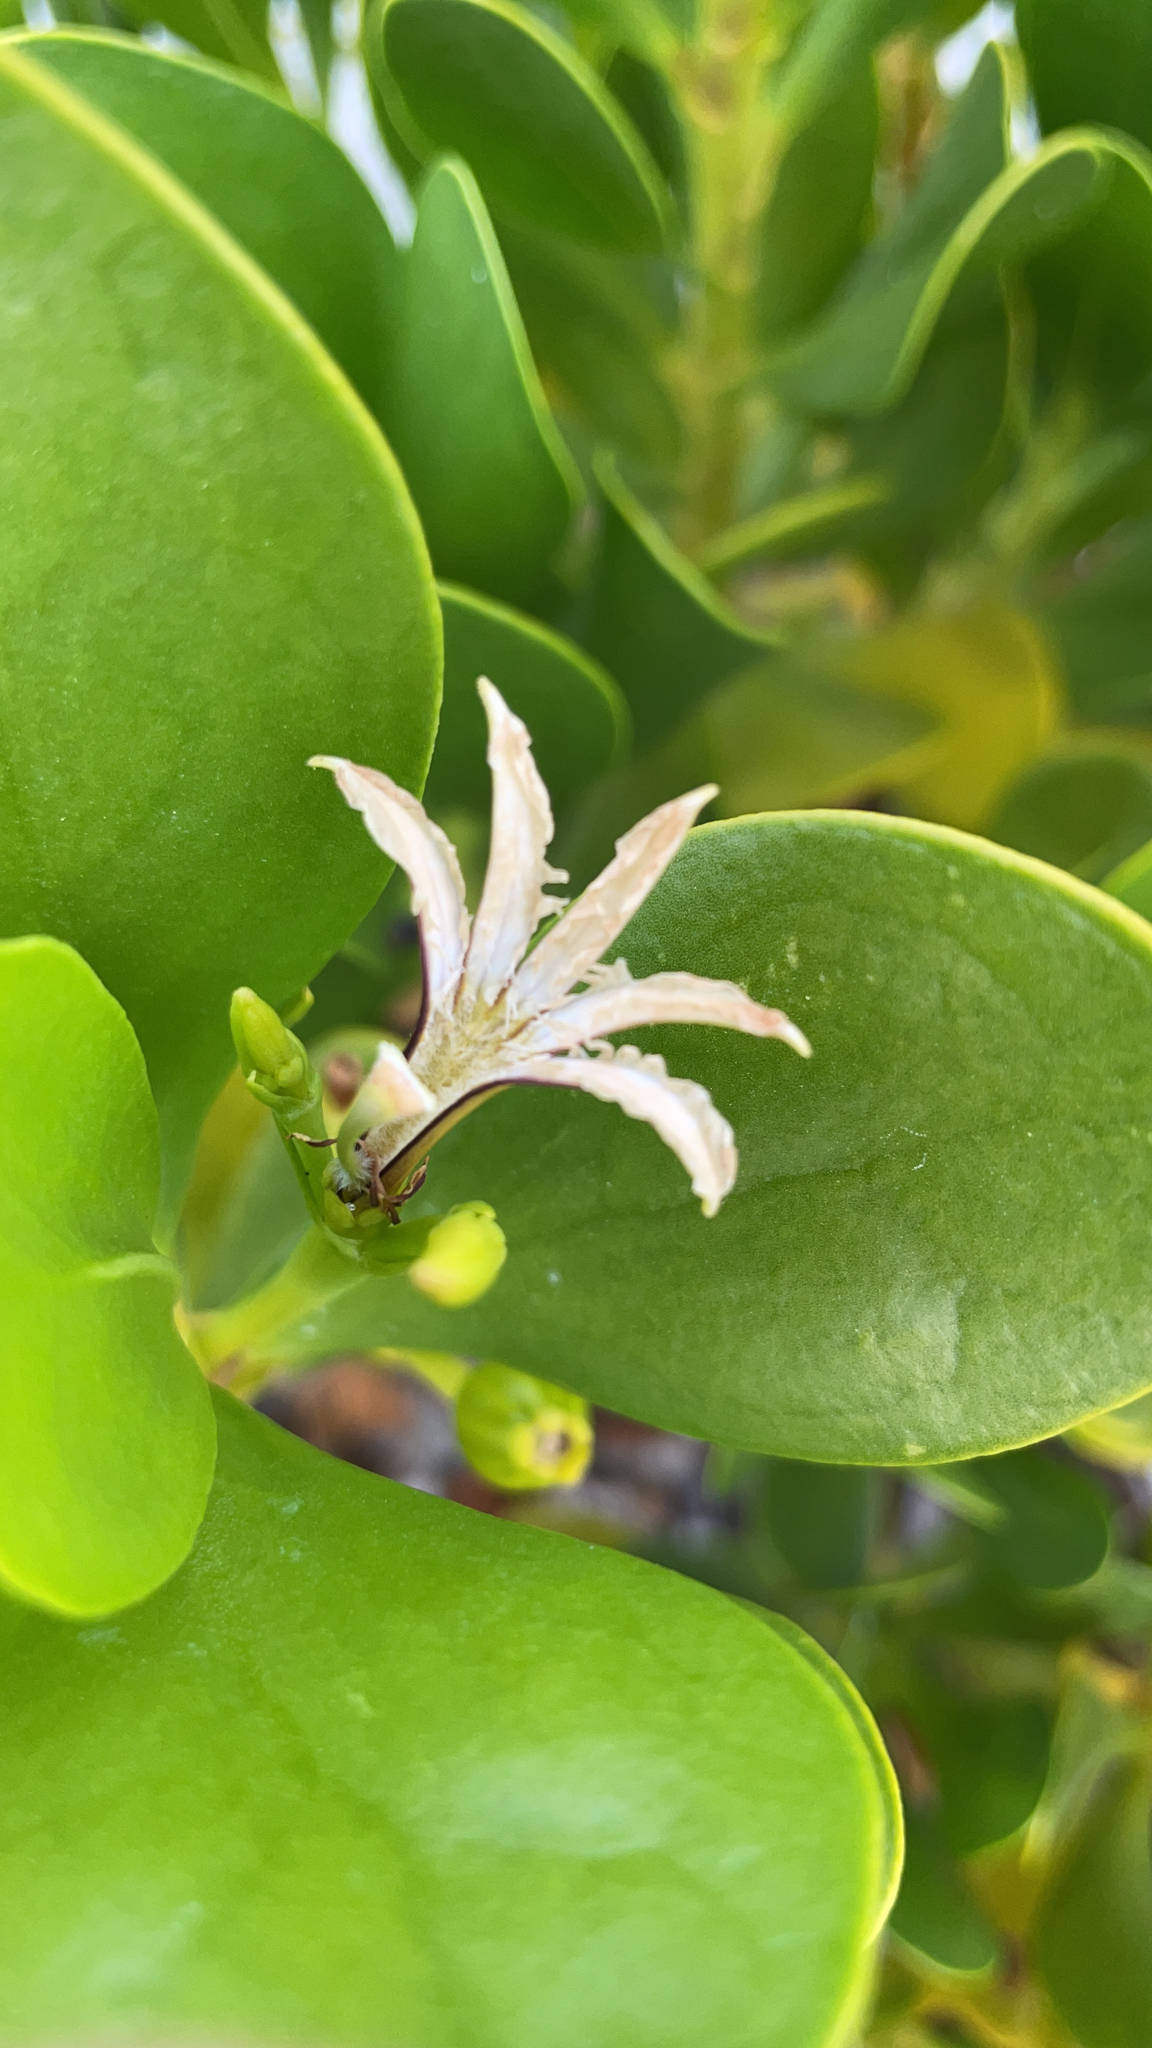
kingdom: Plantae
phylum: Tracheophyta
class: Magnoliopsida
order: Asterales
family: Goodeniaceae
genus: Scaevola
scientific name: Scaevola plumieri
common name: Gull feed
